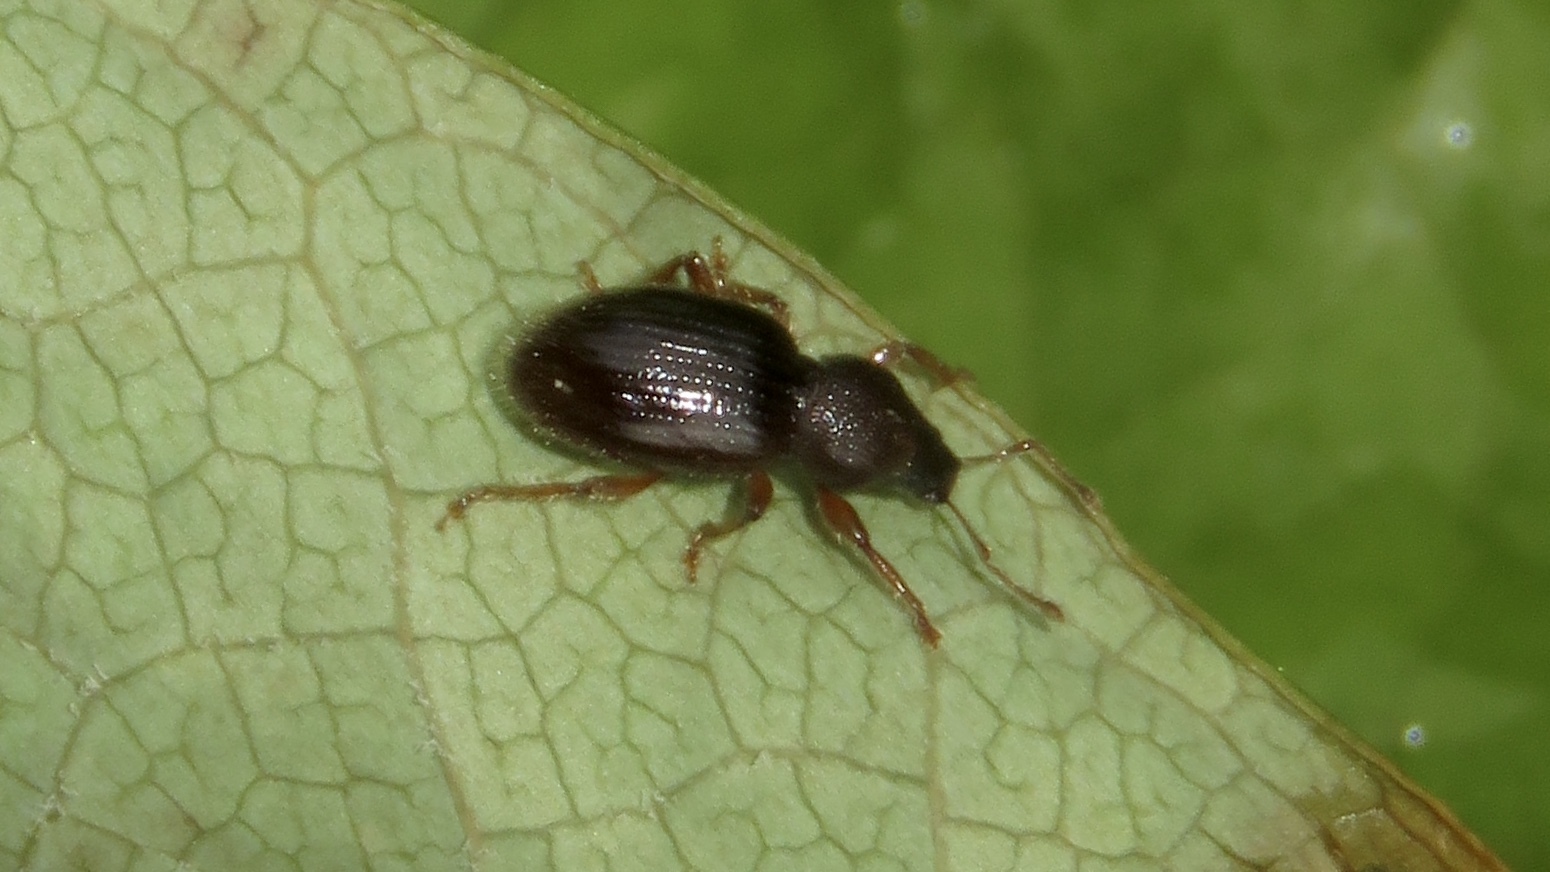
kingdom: Animalia
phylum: Arthropoda
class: Insecta
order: Coleoptera
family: Curculionidae
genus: Exomias
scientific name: Exomias pellucidus
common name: Hairy spider weevil
